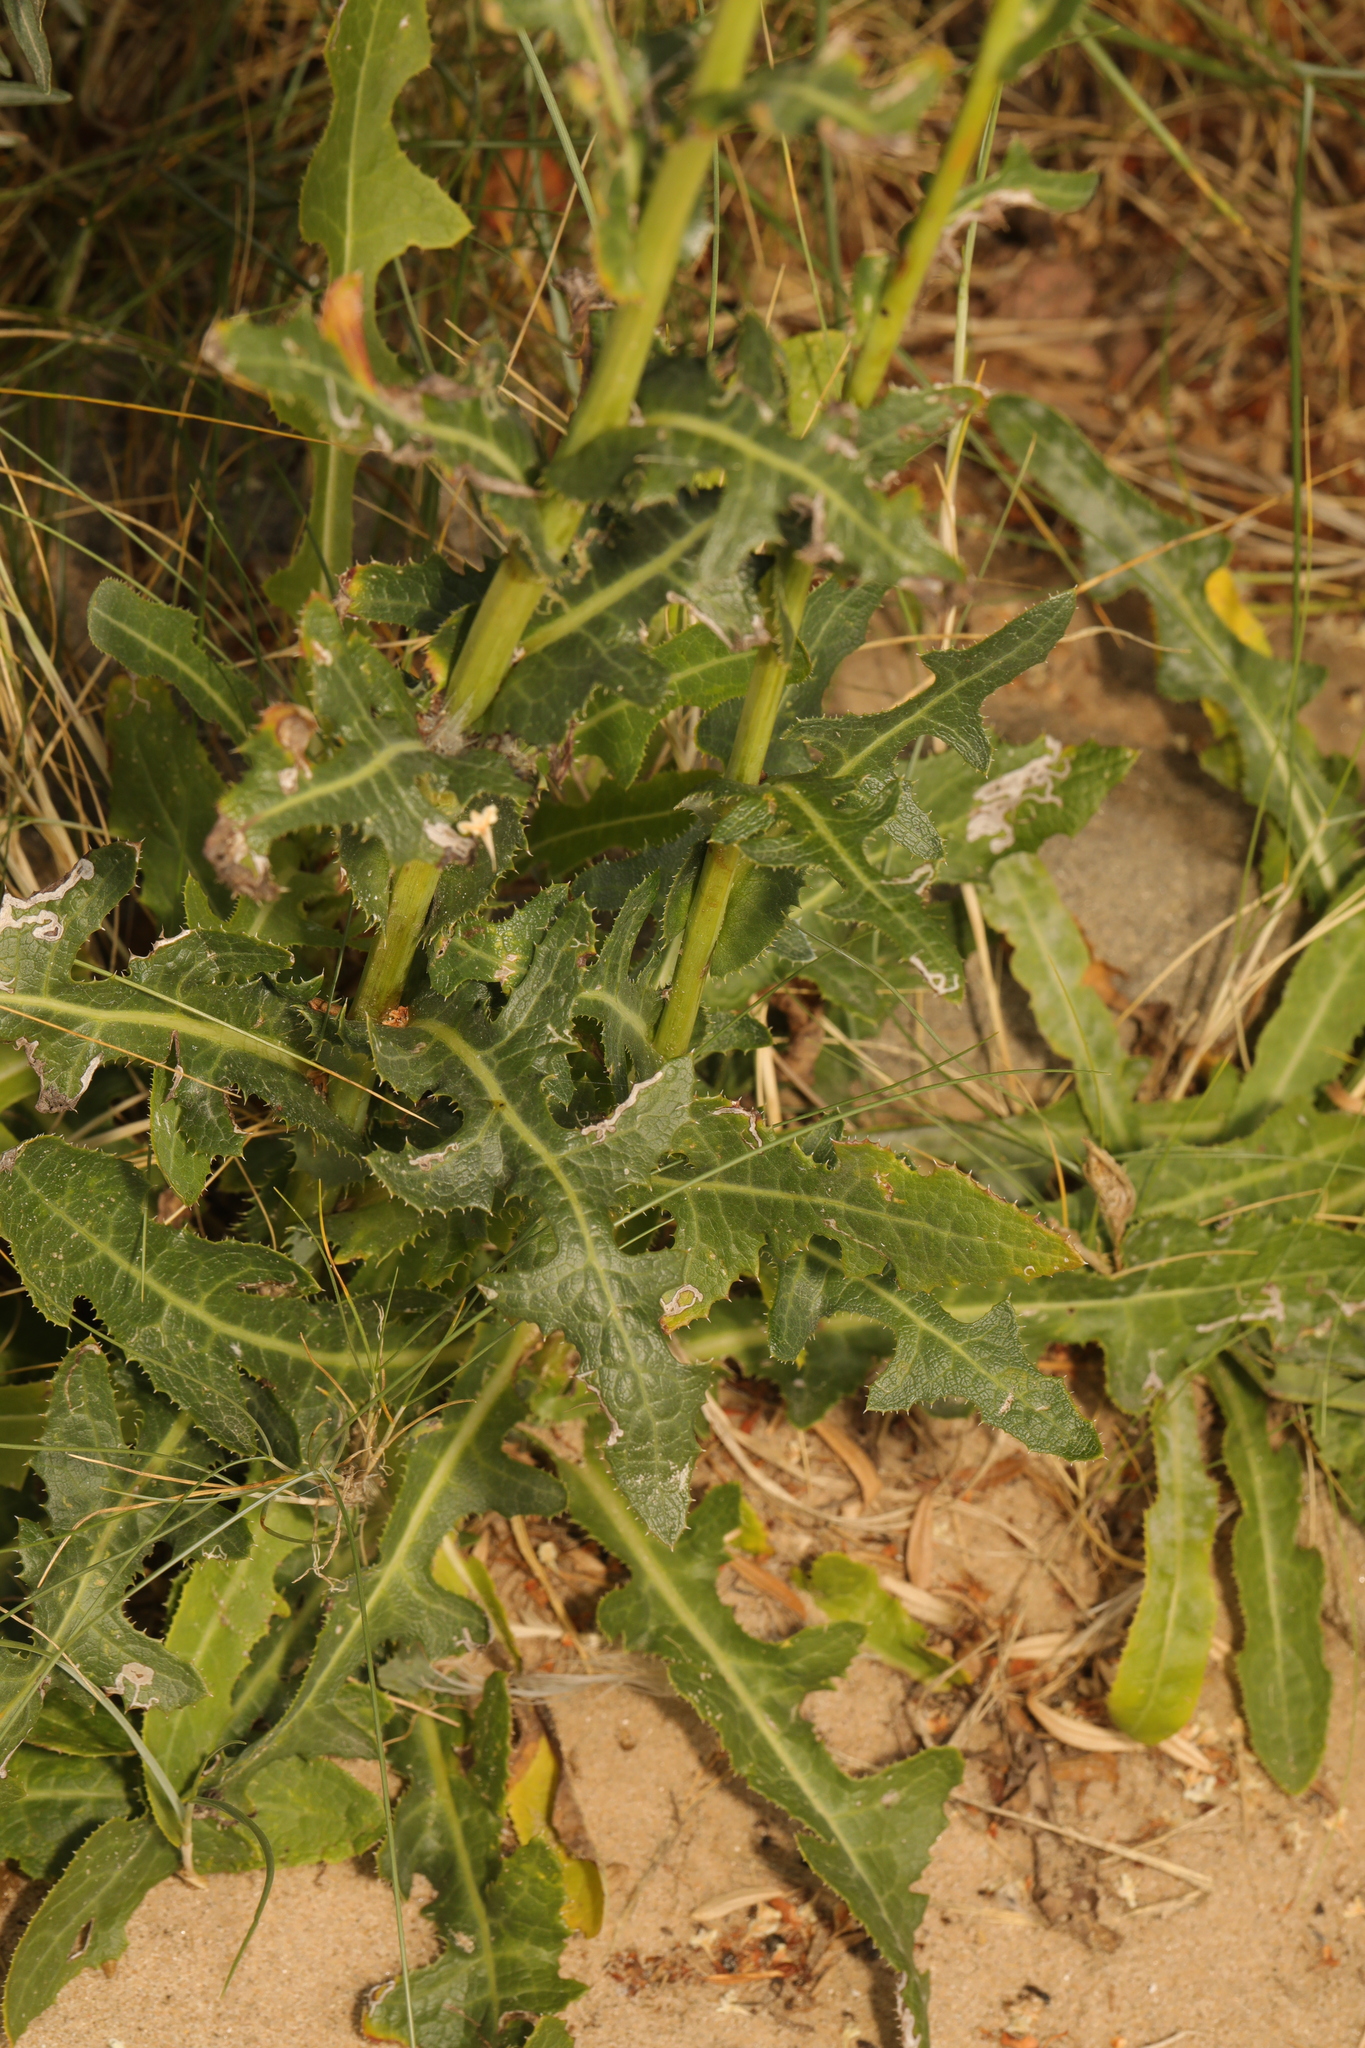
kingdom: Plantae
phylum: Tracheophyta
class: Magnoliopsida
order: Asterales
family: Asteraceae
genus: Sonchus
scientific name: Sonchus arvensis
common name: Perennial sow-thistle
